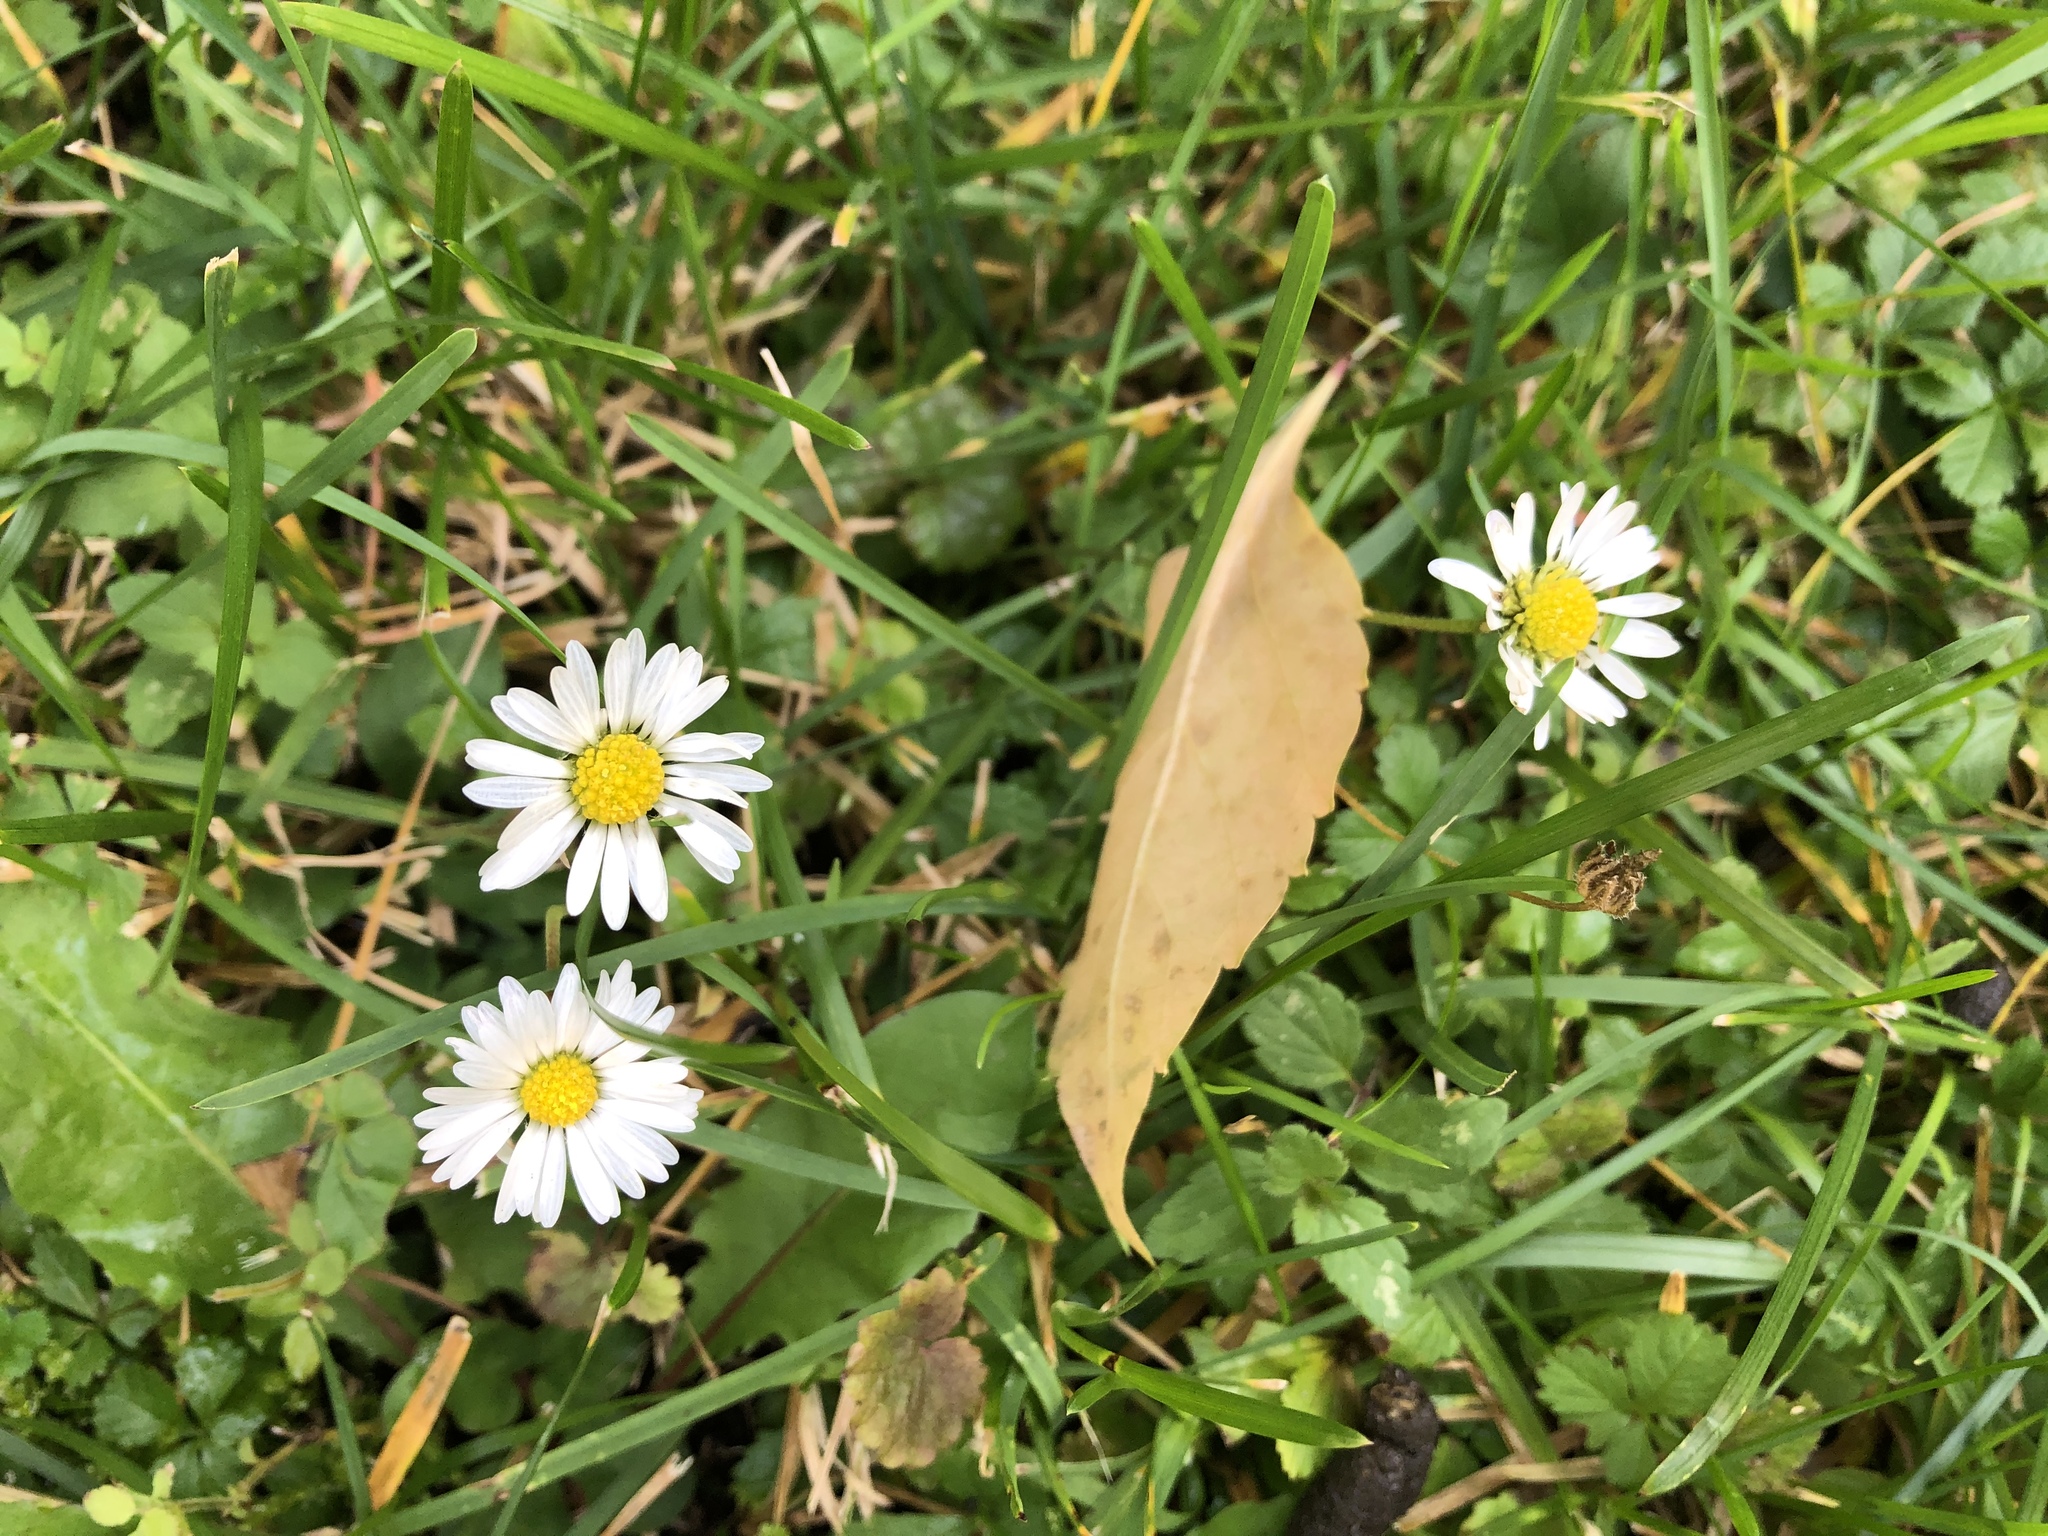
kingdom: Plantae
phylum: Tracheophyta
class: Magnoliopsida
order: Asterales
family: Asteraceae
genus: Bellis
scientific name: Bellis perennis
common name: Lawndaisy
